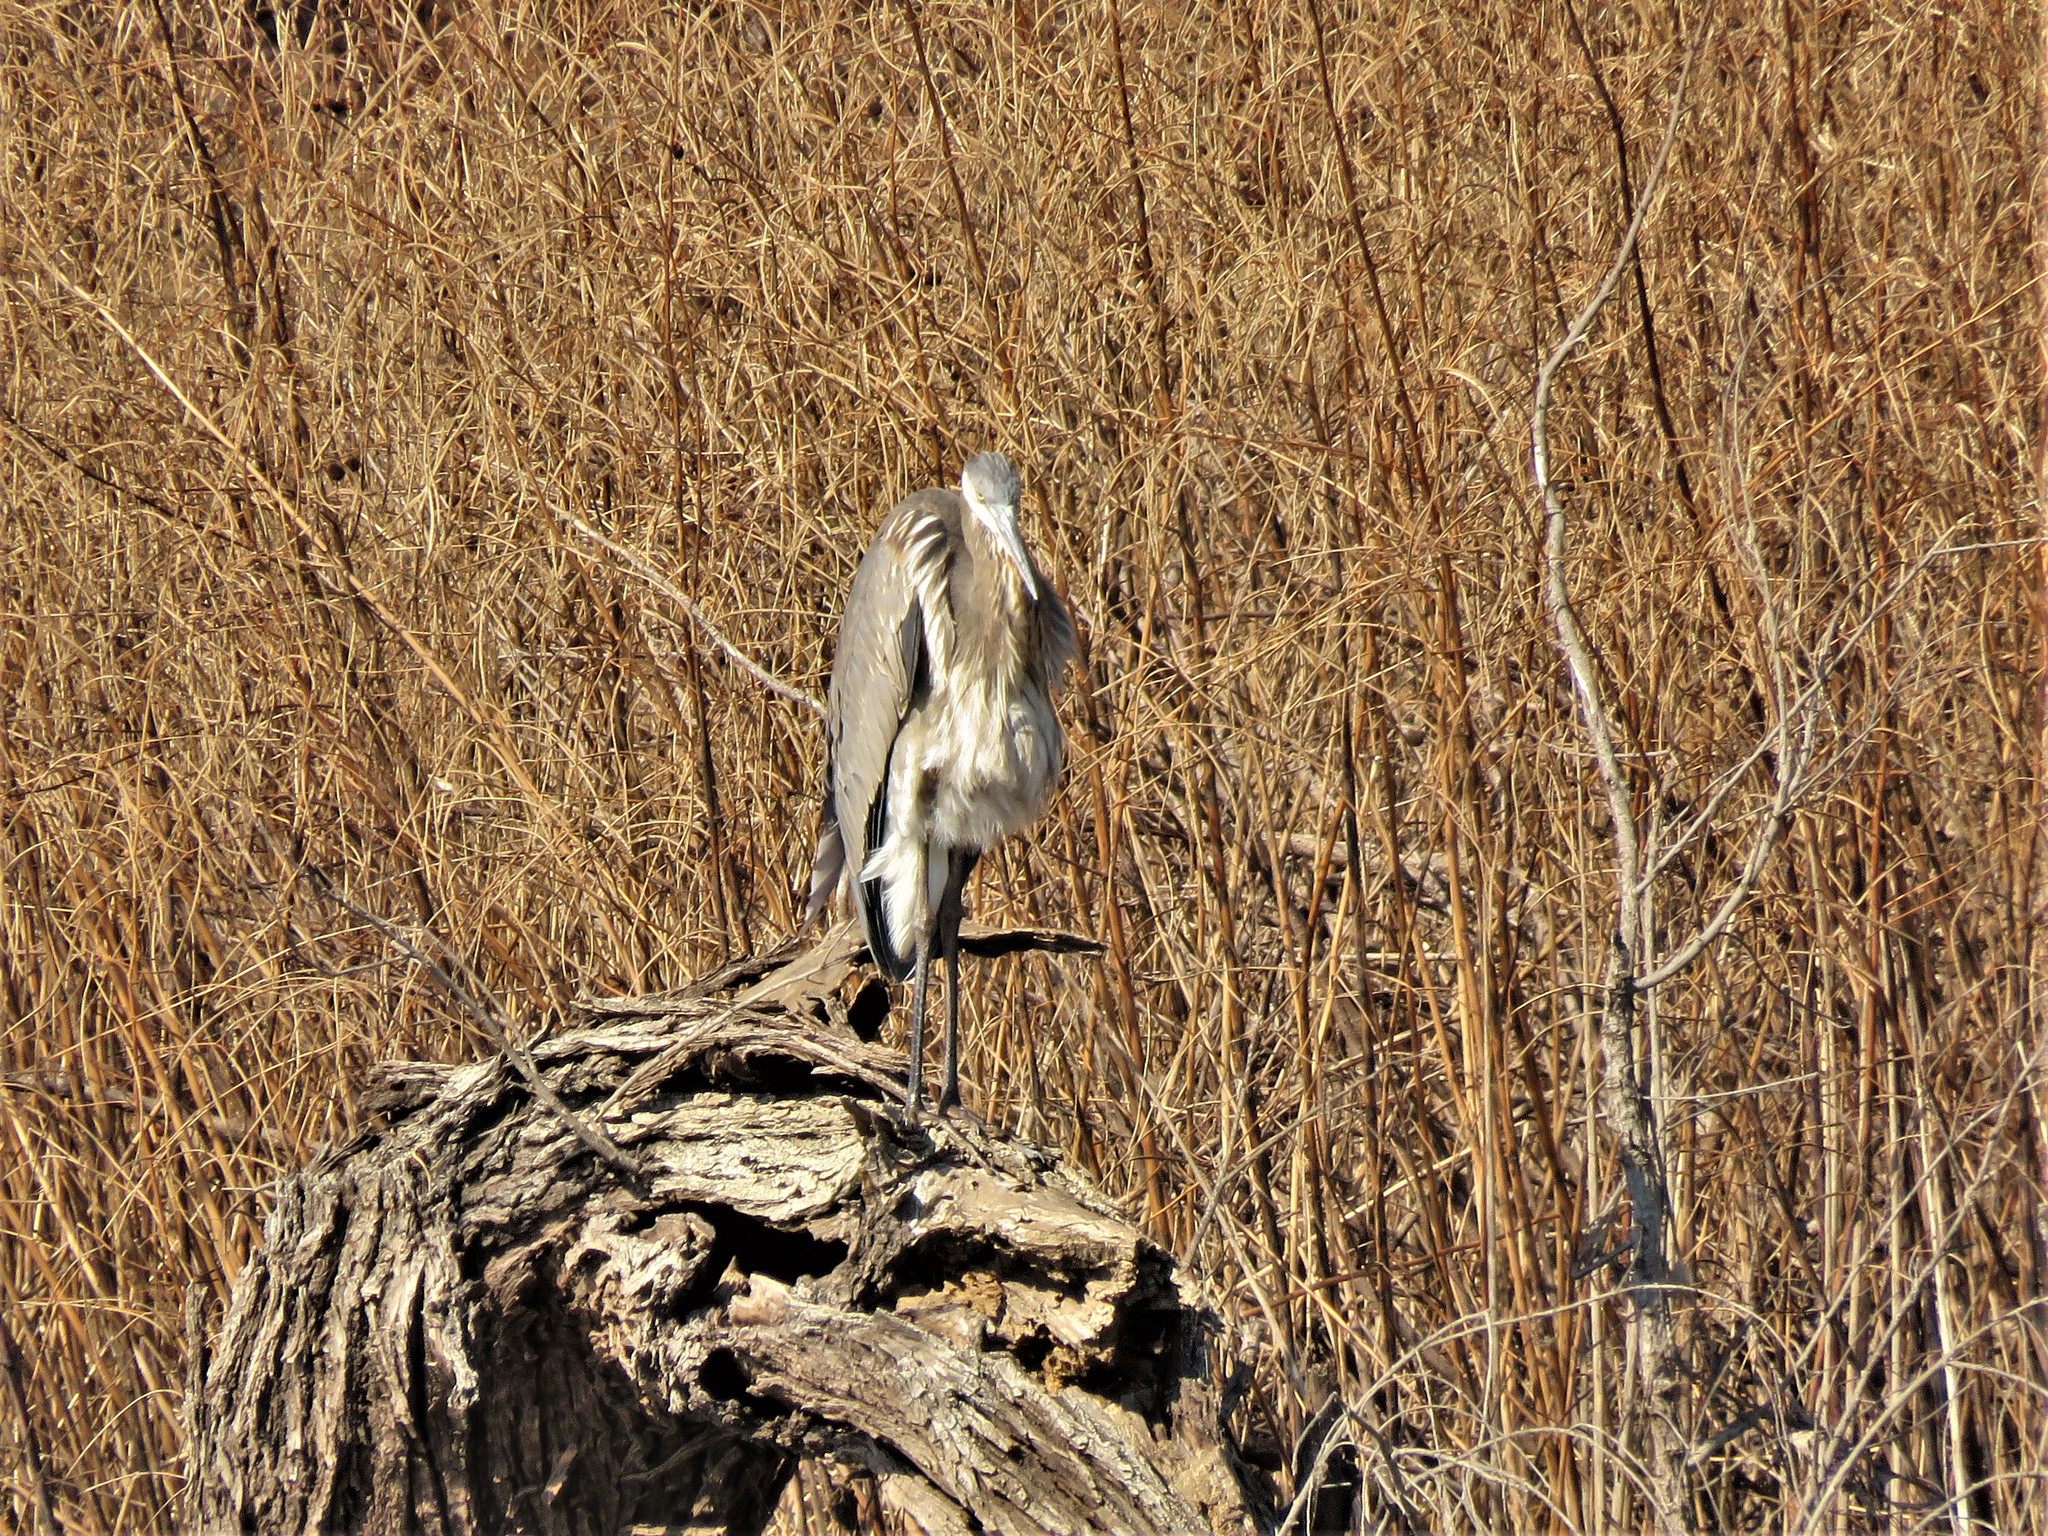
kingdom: Animalia
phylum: Chordata
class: Aves
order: Pelecaniformes
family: Ardeidae
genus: Ardea
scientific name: Ardea herodias
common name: Great blue heron
